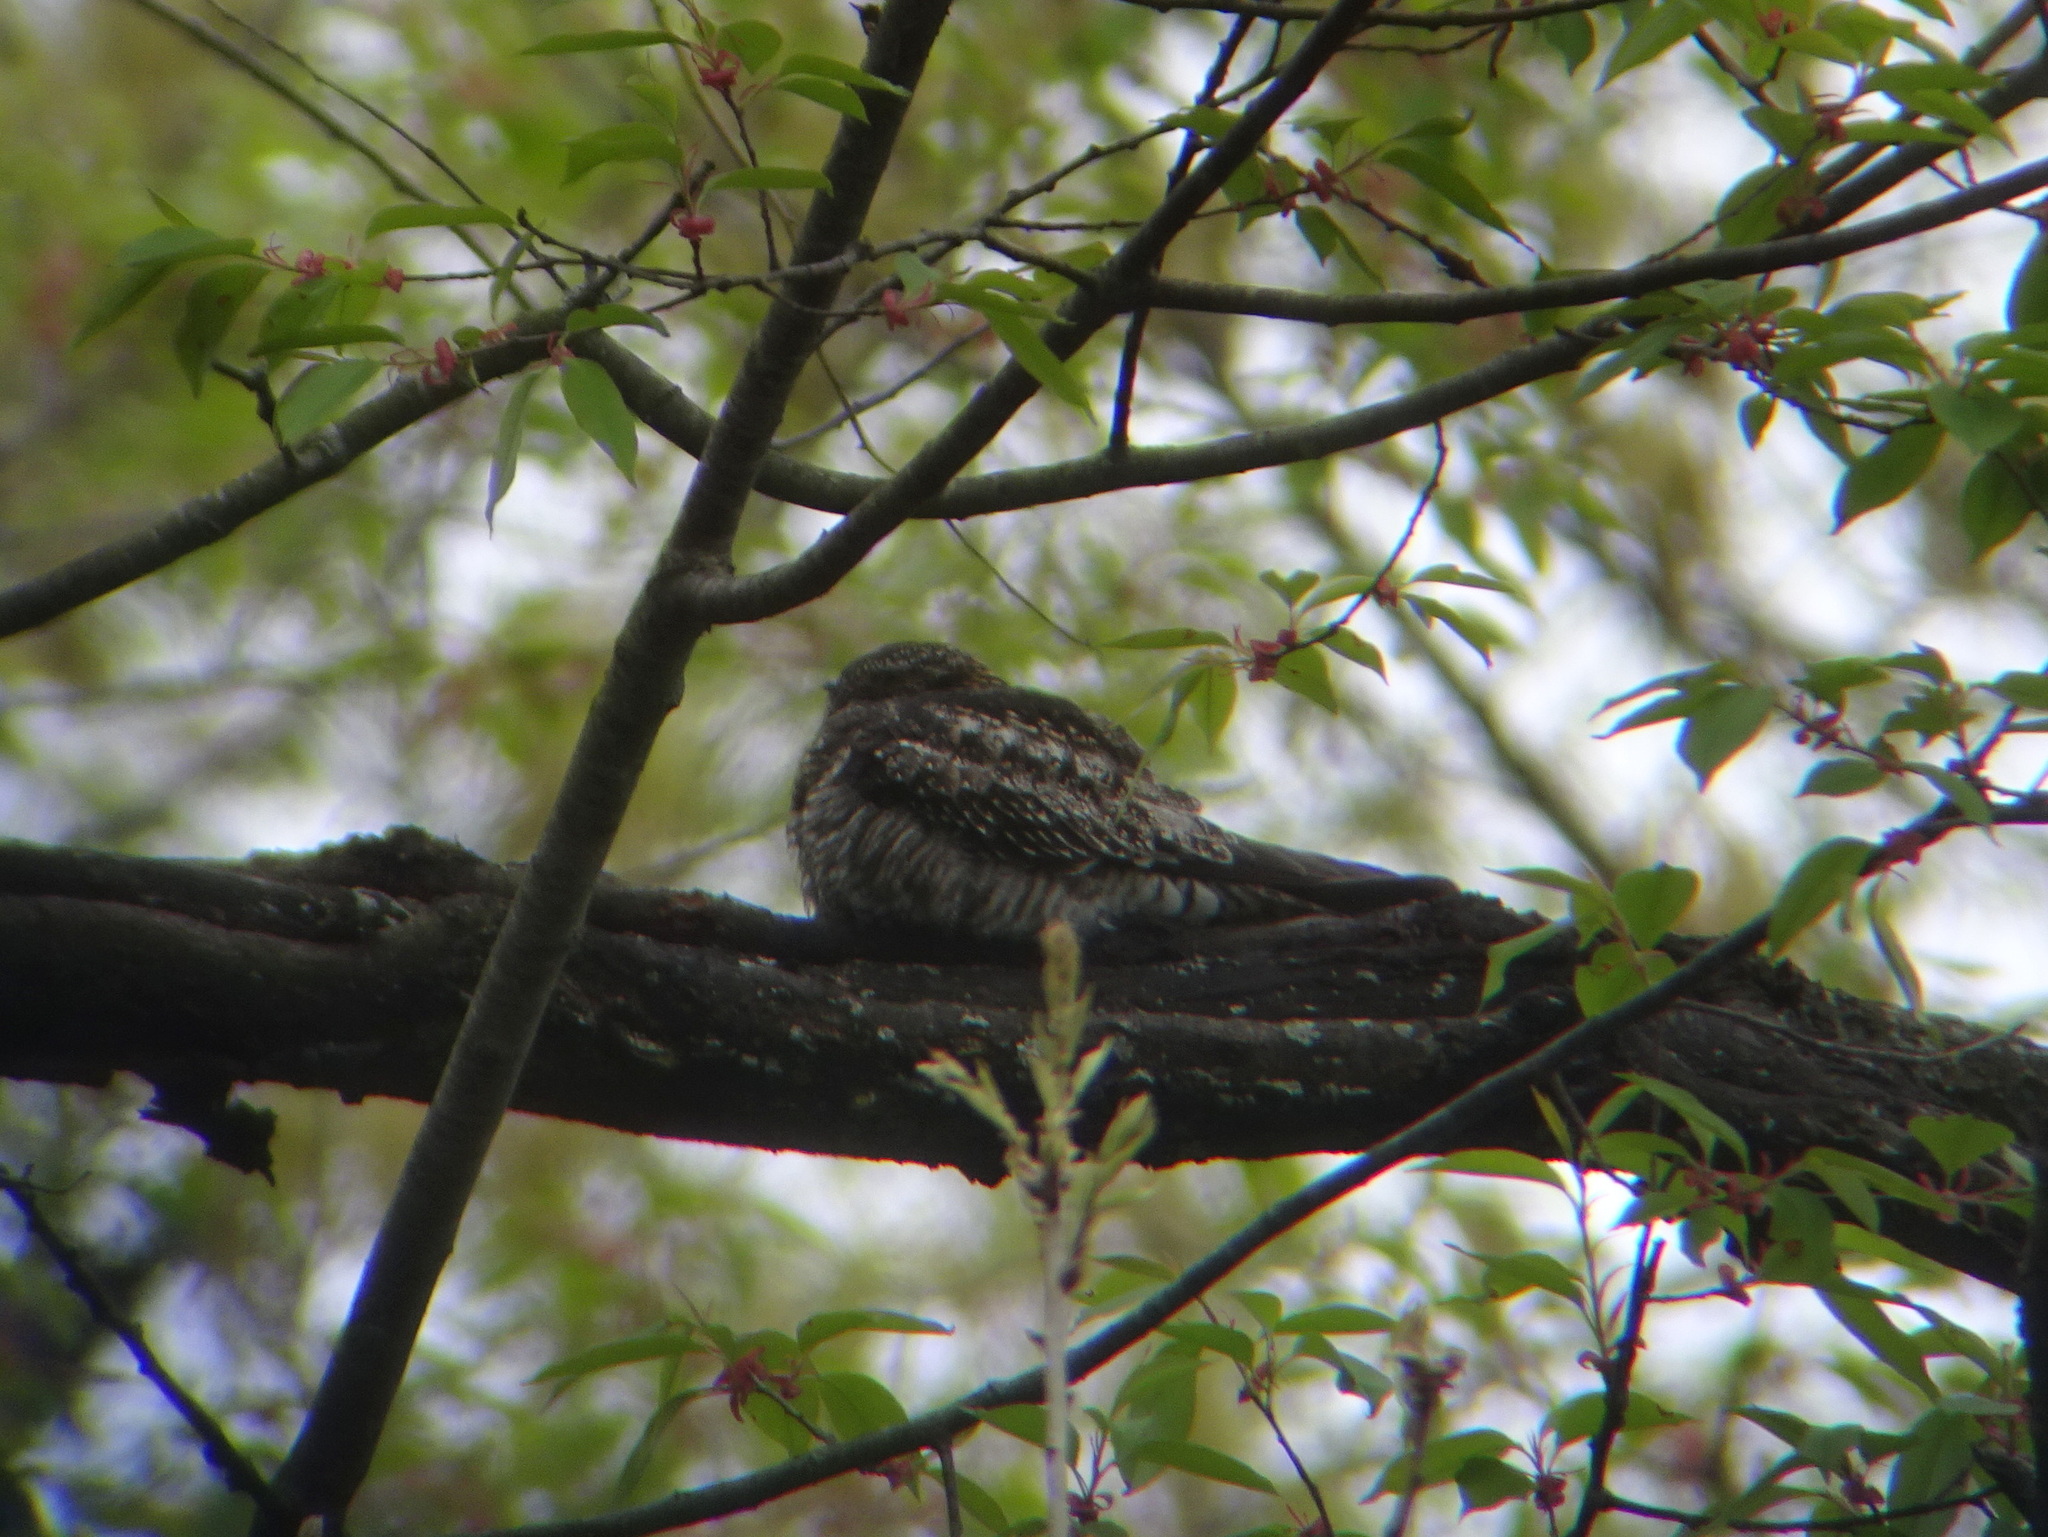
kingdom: Animalia
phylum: Chordata
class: Aves
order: Caprimulgiformes
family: Caprimulgidae
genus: Chordeiles
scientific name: Chordeiles minor
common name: Common nighthawk
